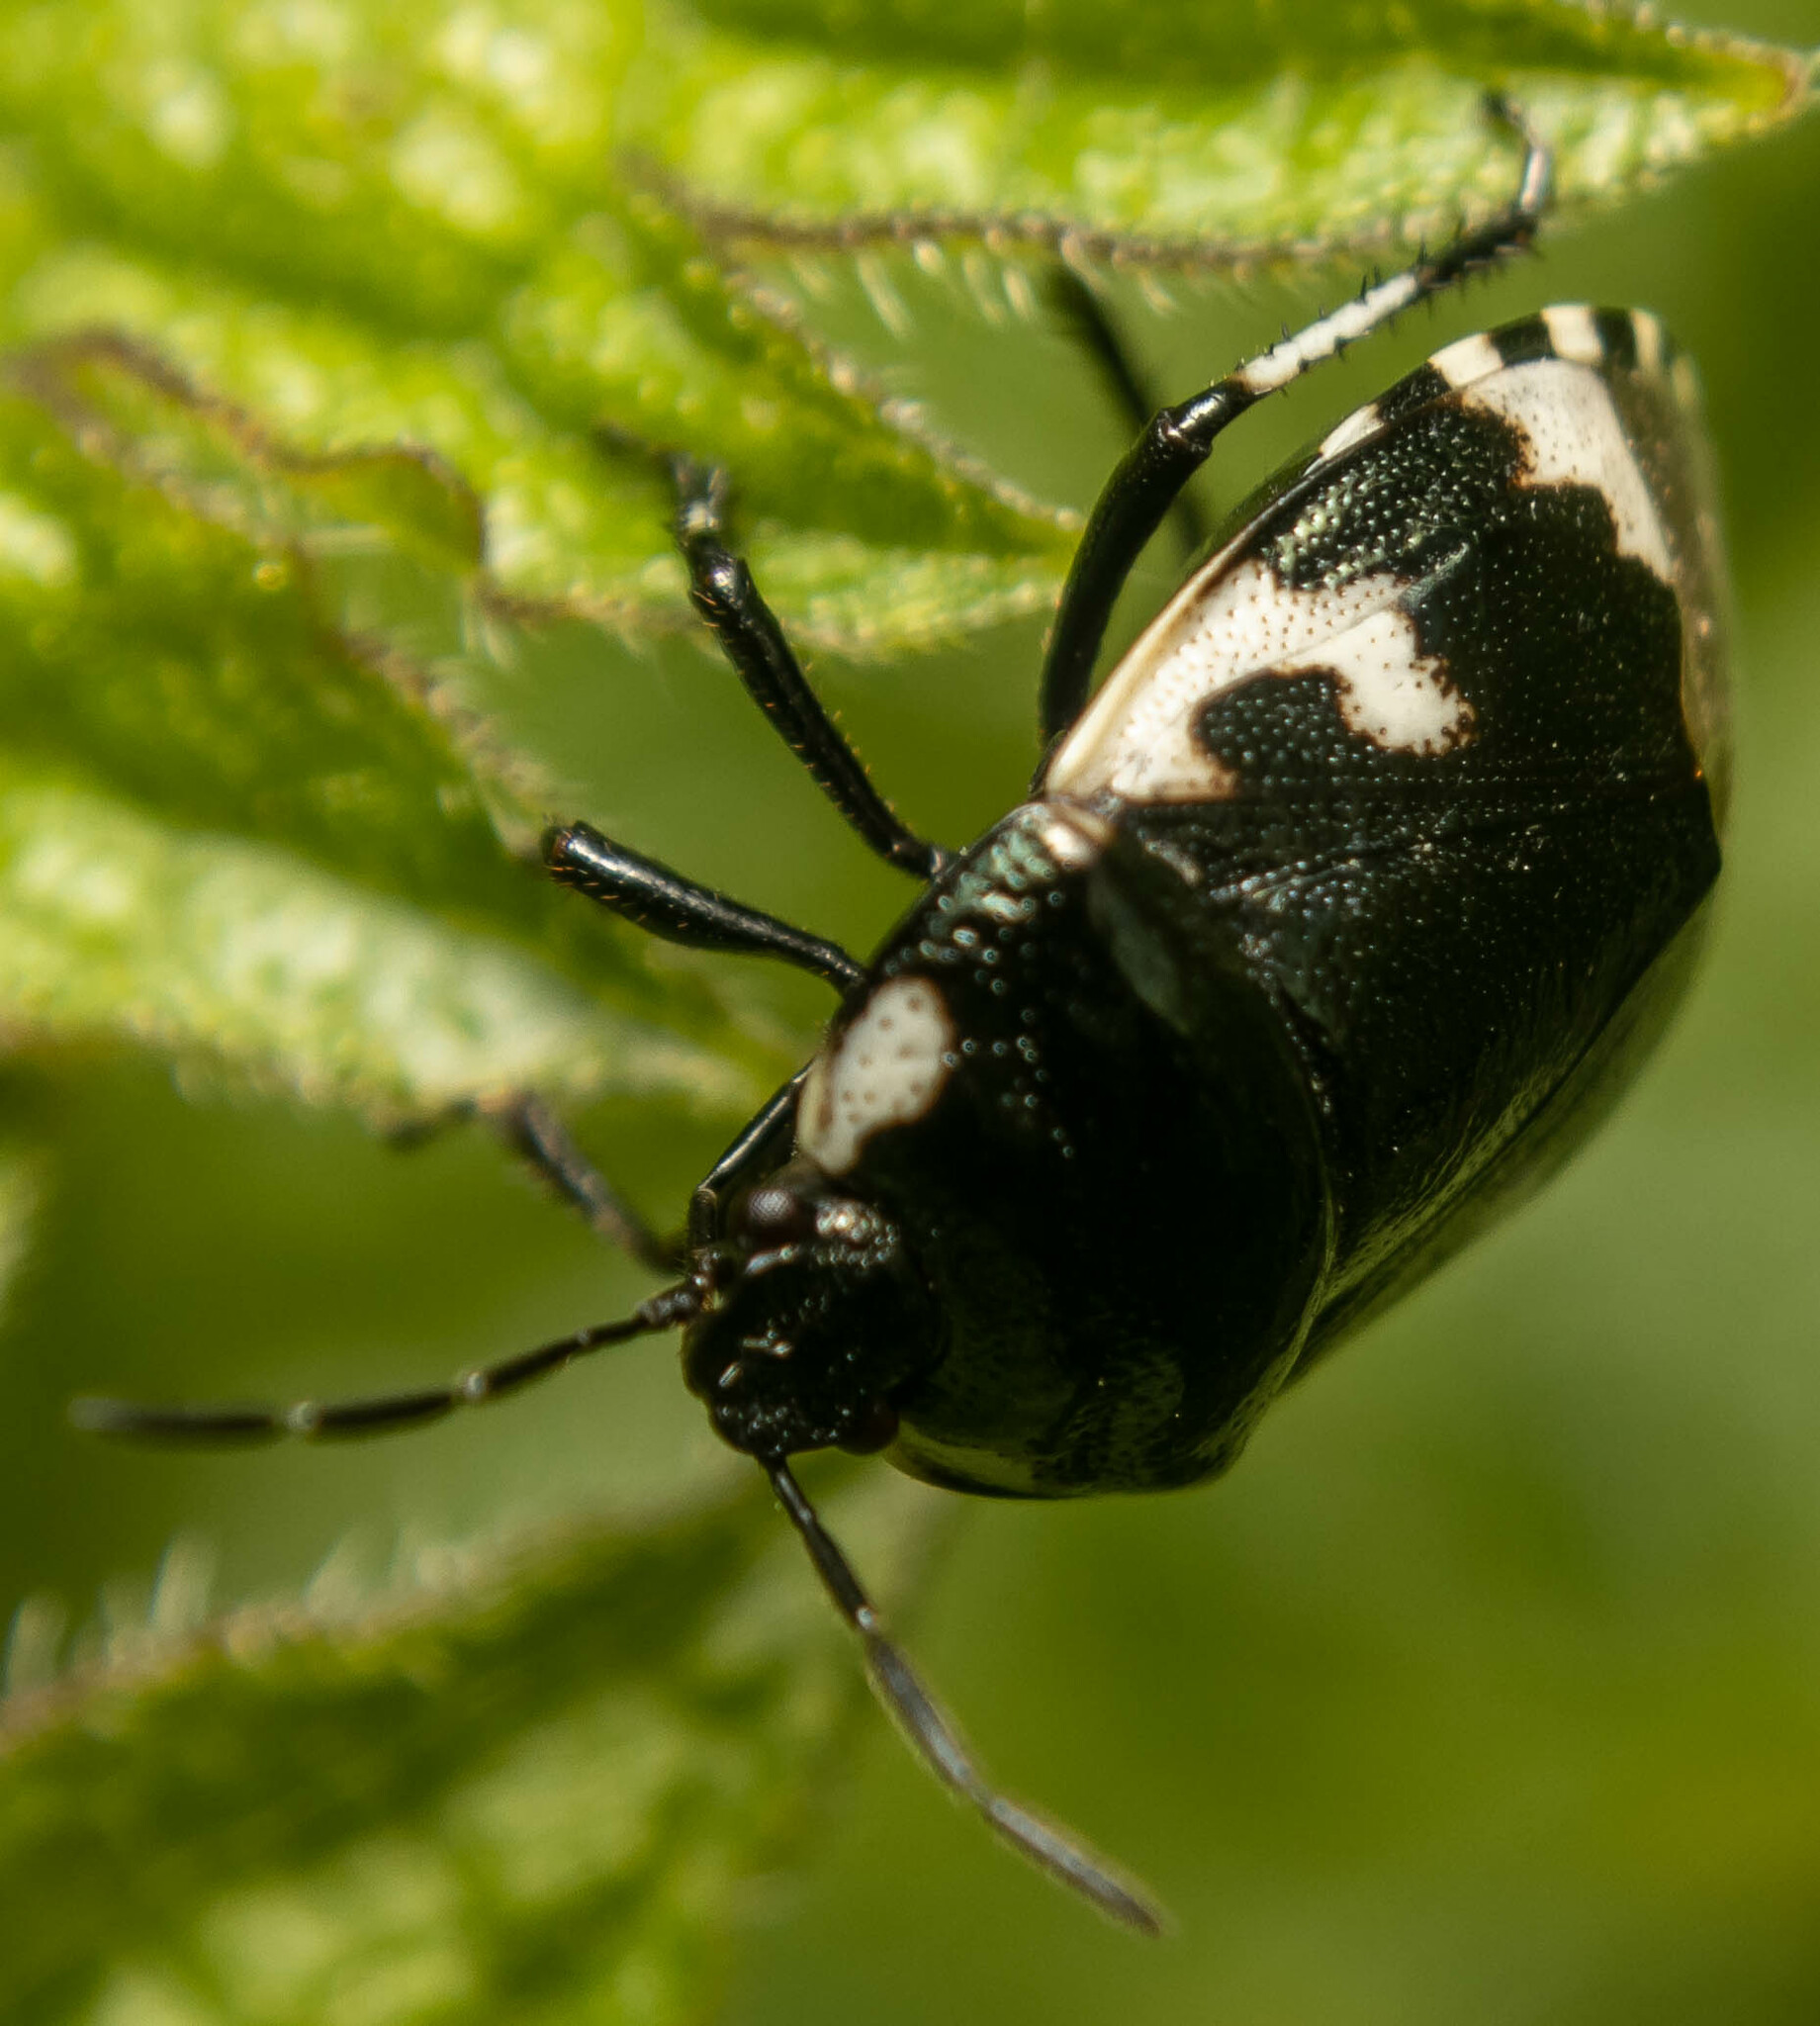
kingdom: Animalia
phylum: Arthropoda
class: Insecta
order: Hemiptera
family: Cydnidae
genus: Tritomegas
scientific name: Tritomegas bicolor
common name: Pied shieldbug
